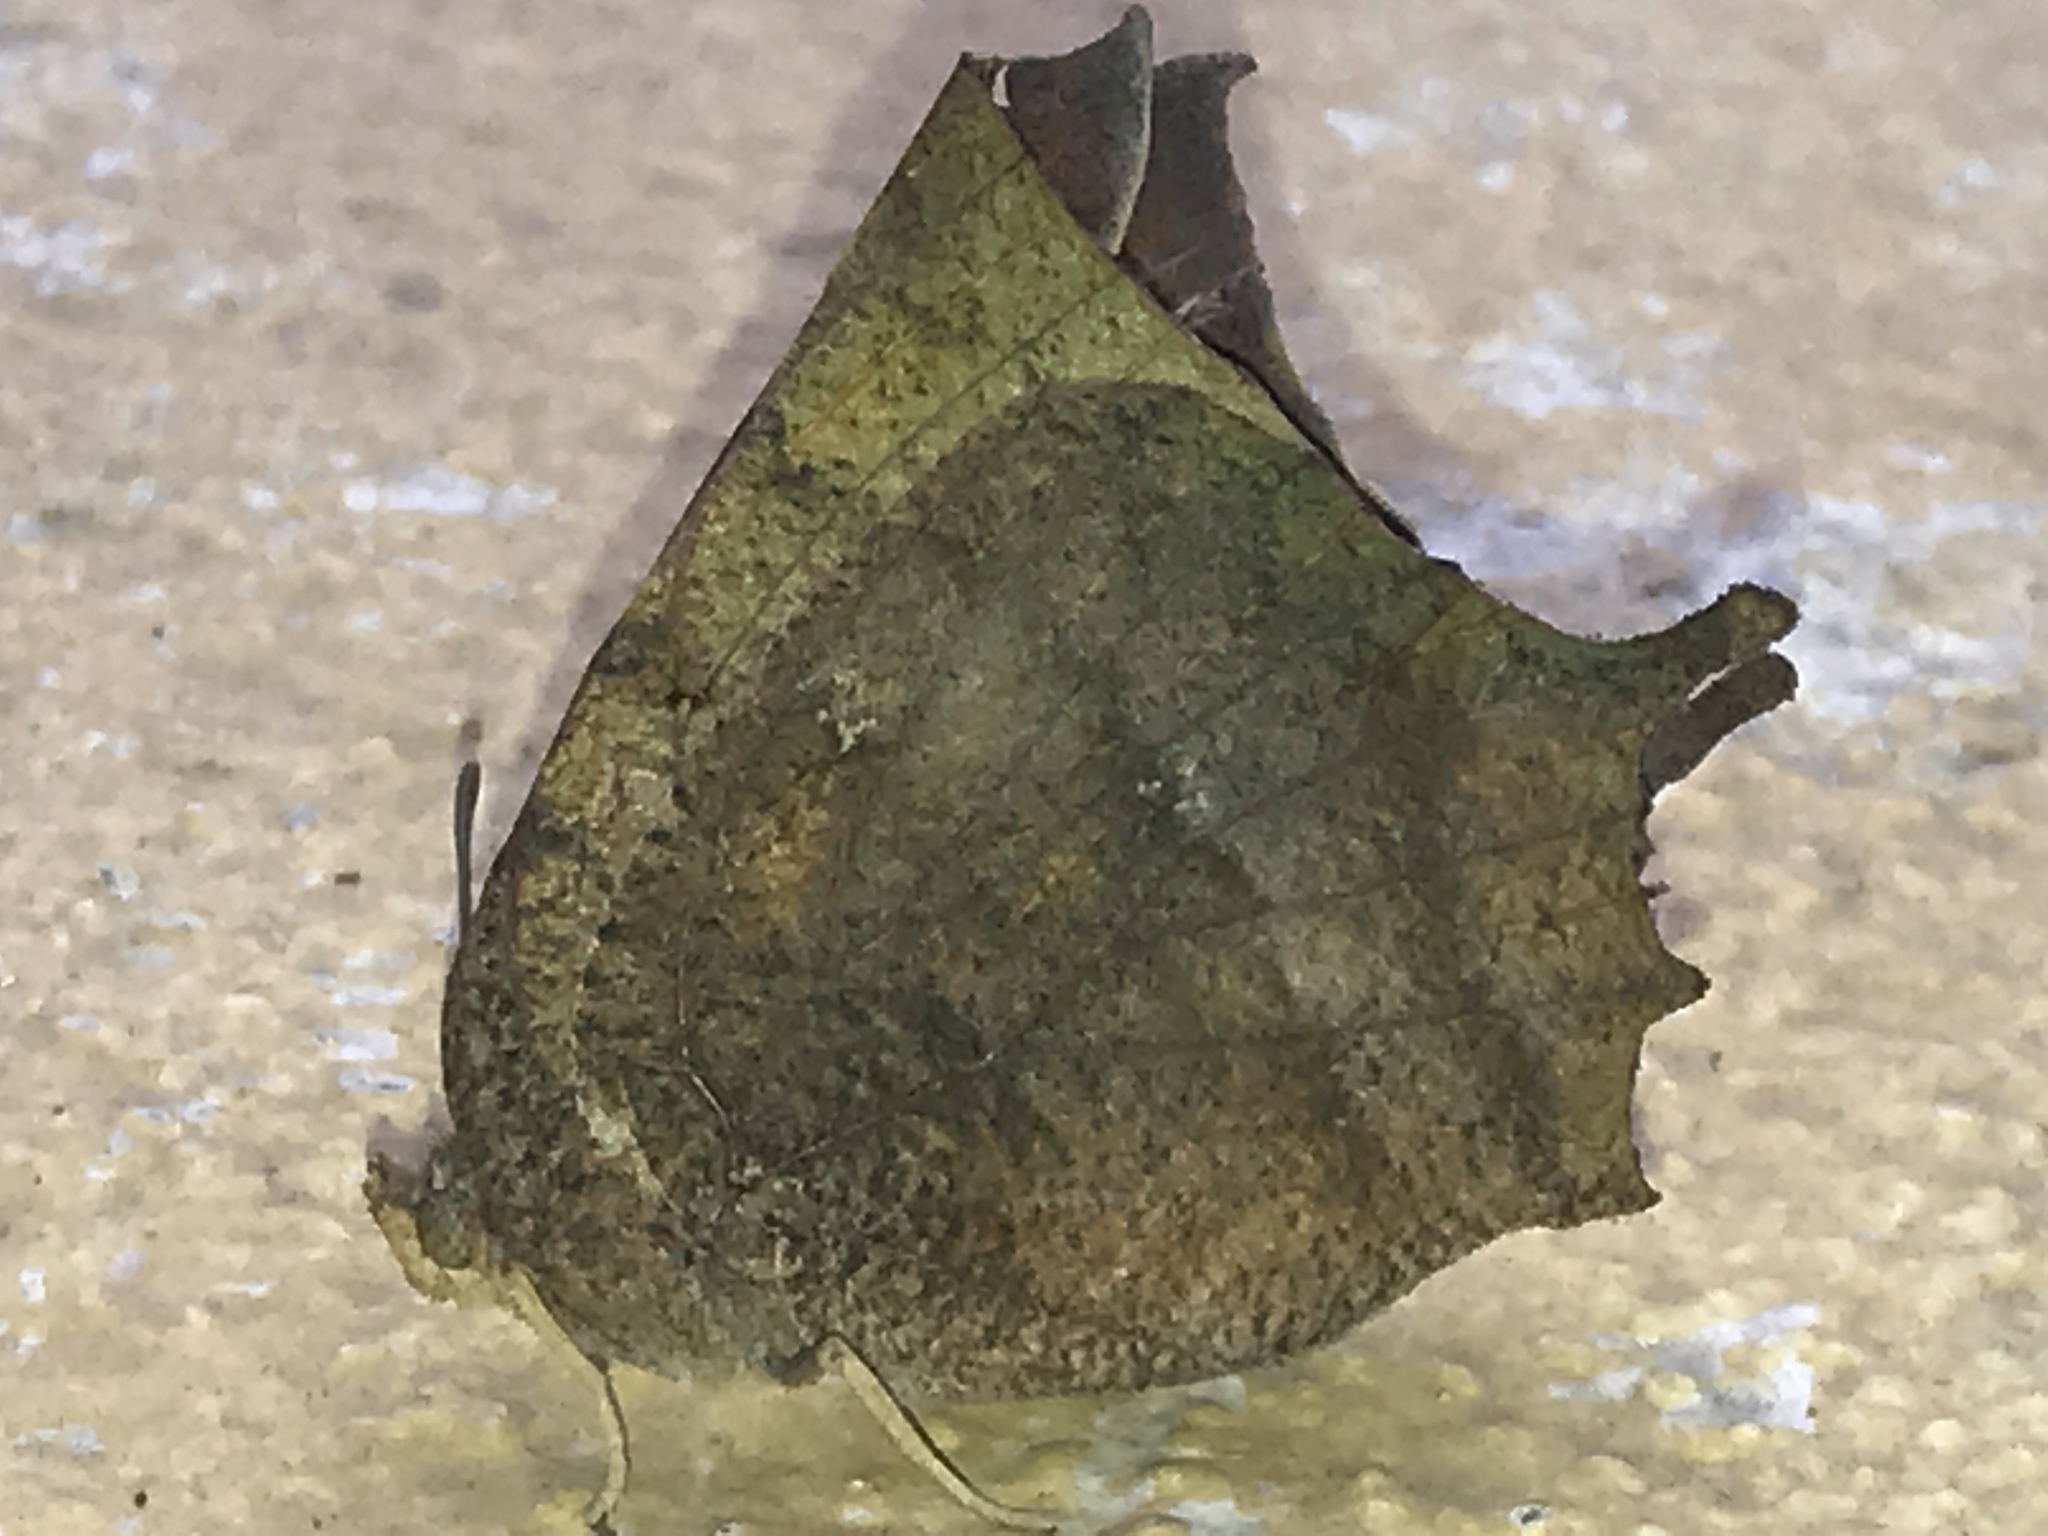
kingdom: Animalia
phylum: Arthropoda
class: Insecta
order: Lepidoptera
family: Nymphalidae
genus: Anaea
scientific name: Anaea aidea
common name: Tropical leafwing
